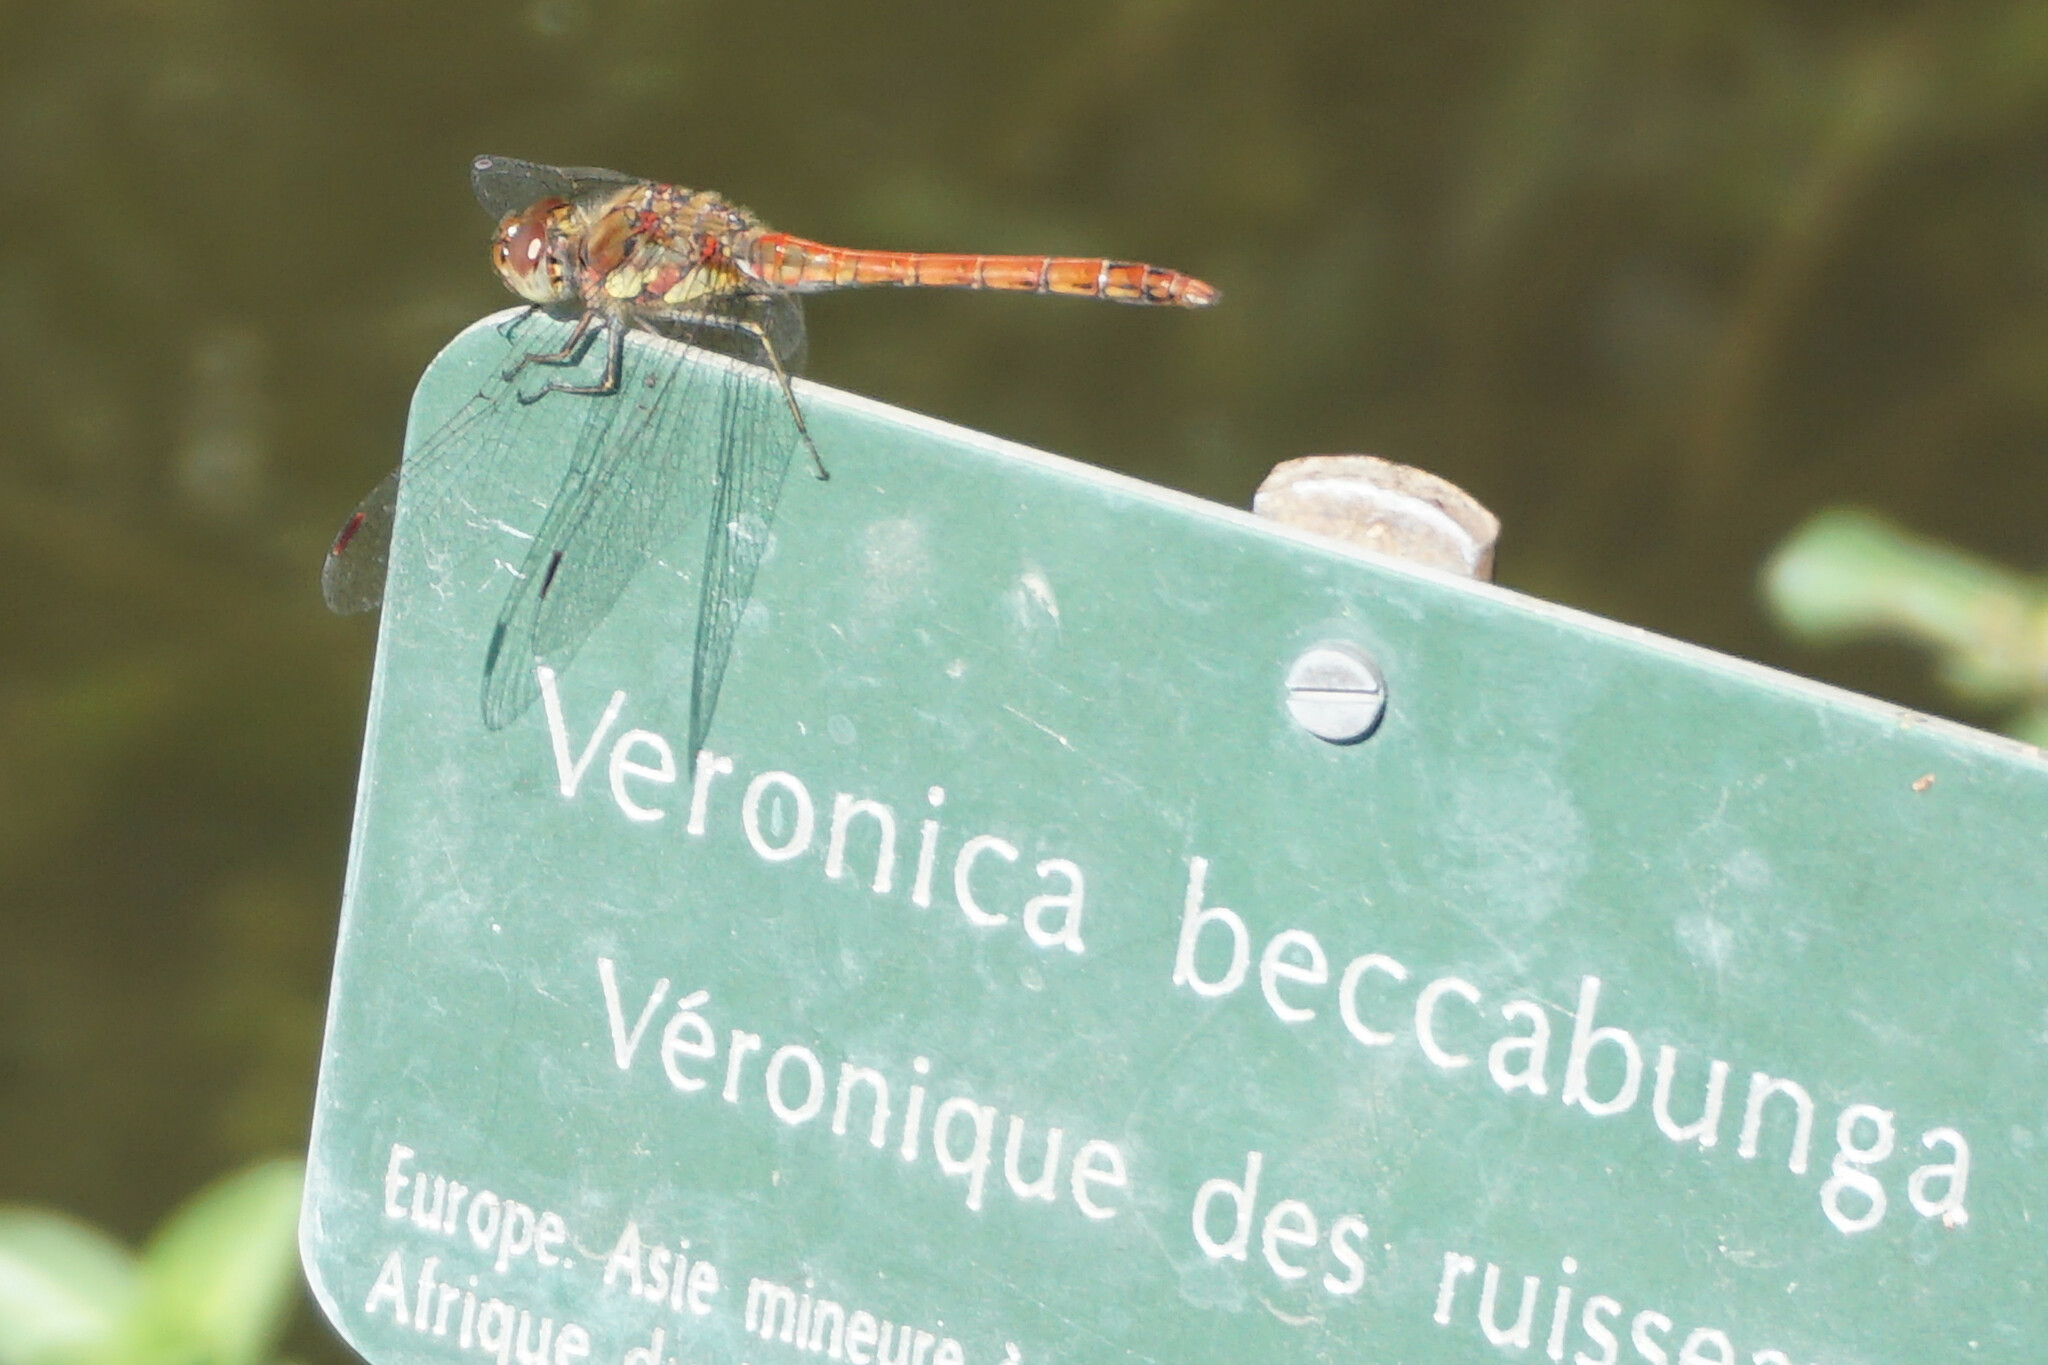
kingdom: Animalia
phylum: Arthropoda
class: Insecta
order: Odonata
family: Libellulidae
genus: Sympetrum
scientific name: Sympetrum striolatum
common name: Common darter
